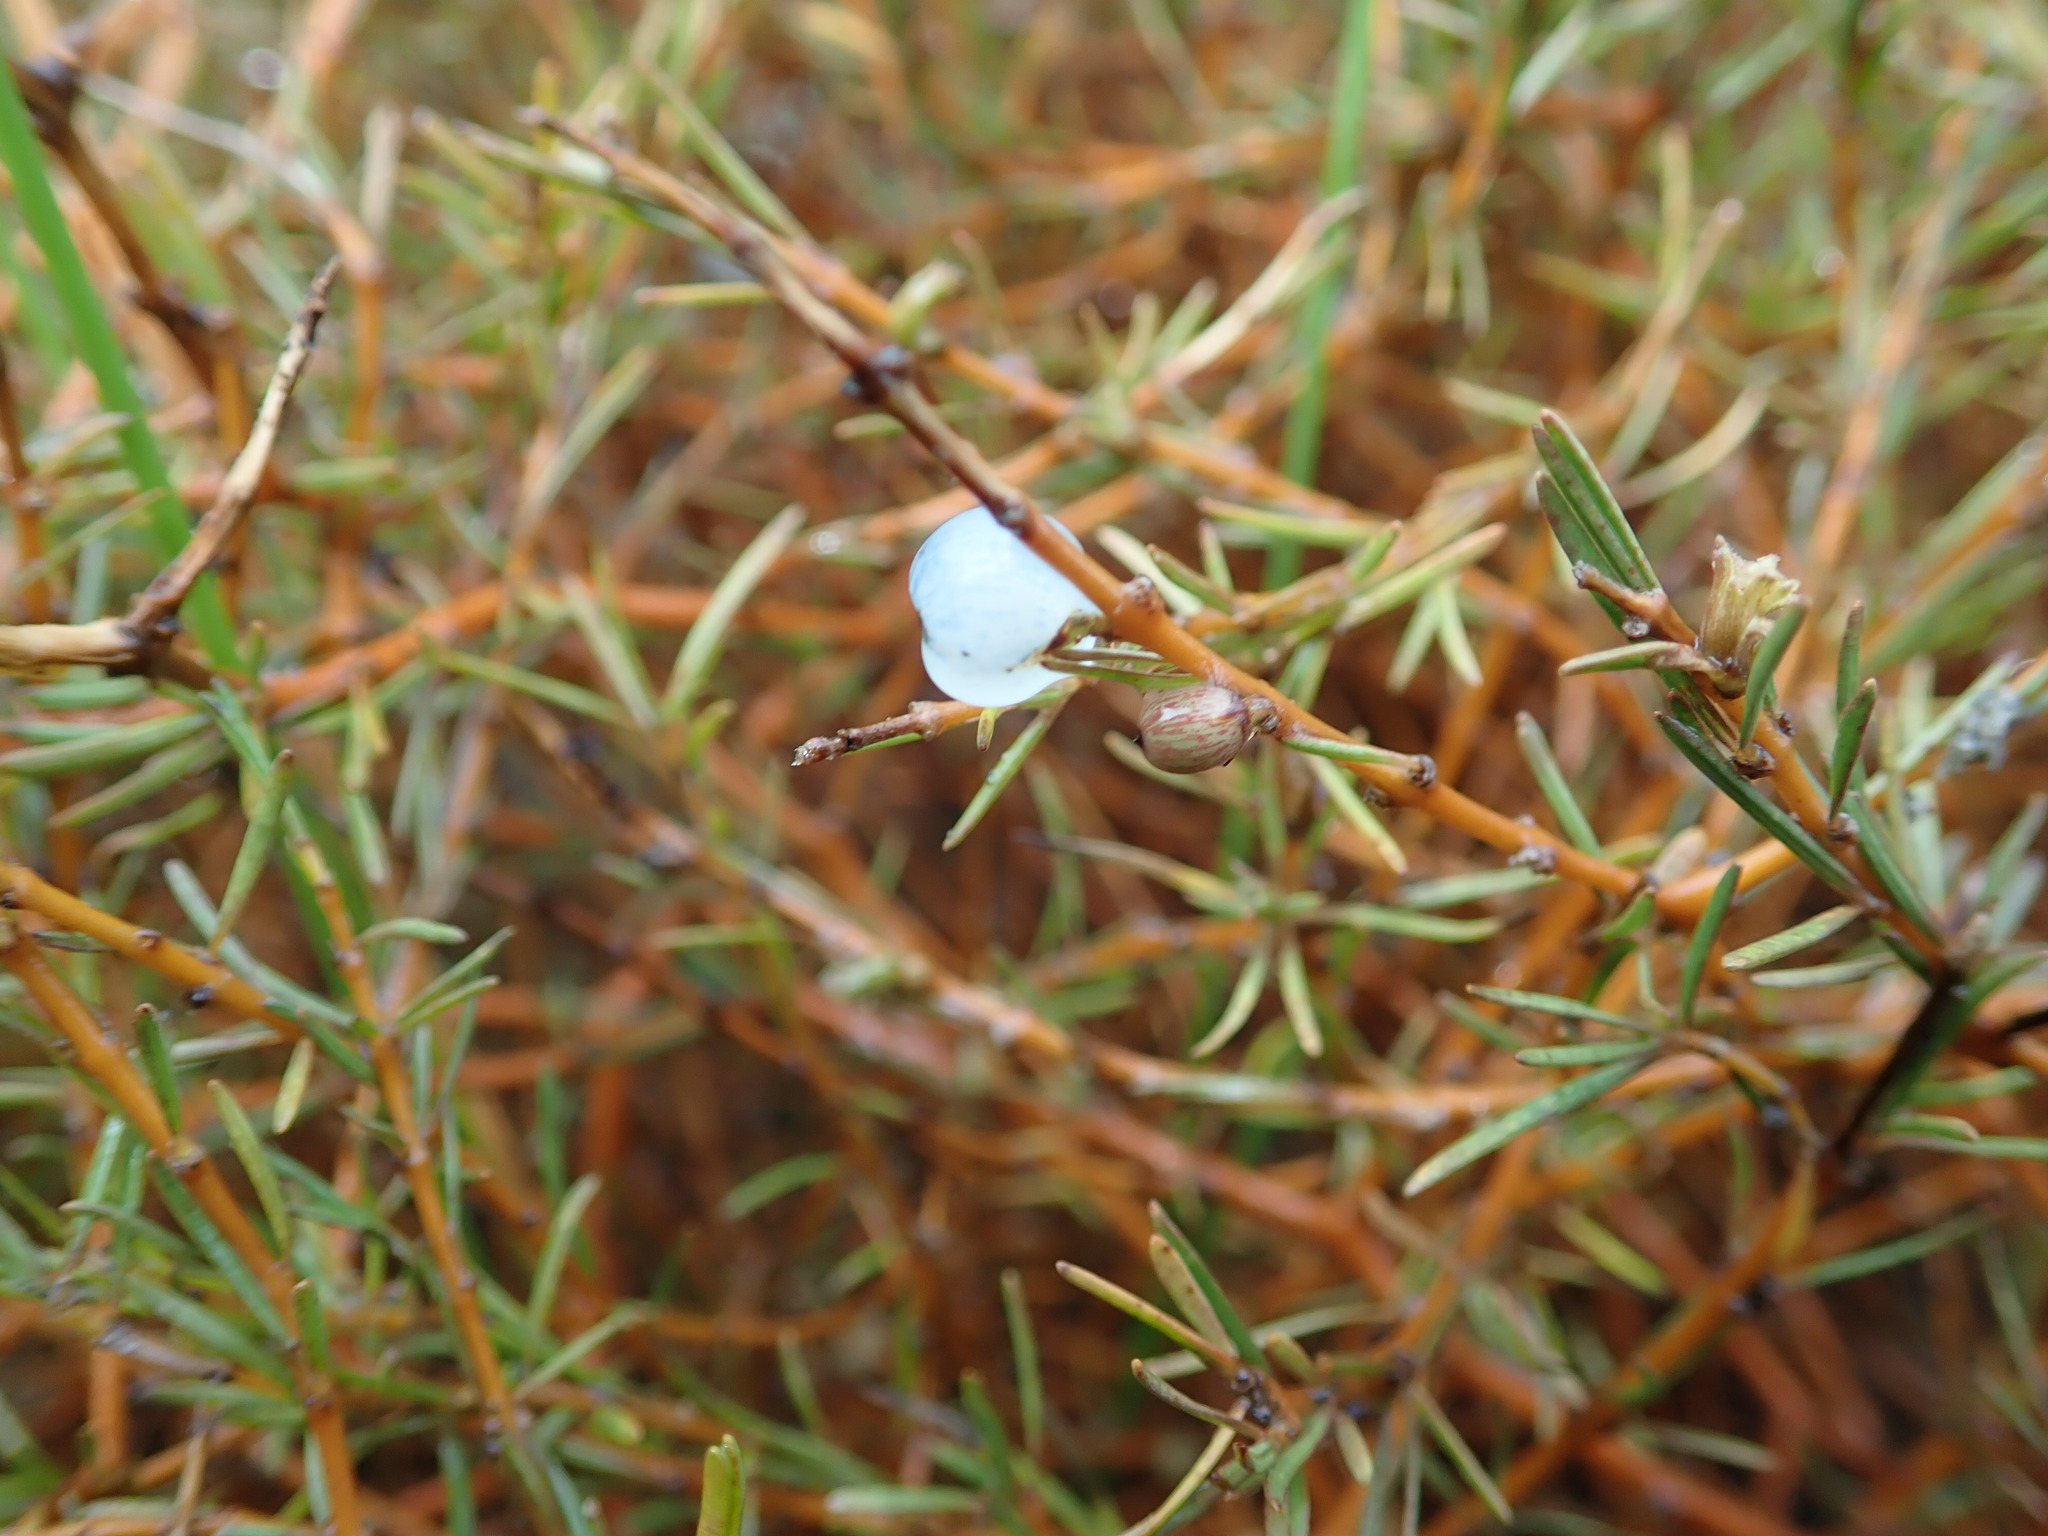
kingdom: Plantae
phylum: Tracheophyta
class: Magnoliopsida
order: Gentianales
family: Rubiaceae
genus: Coprosma
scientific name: Coprosma acerosa
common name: Sand coprosma
